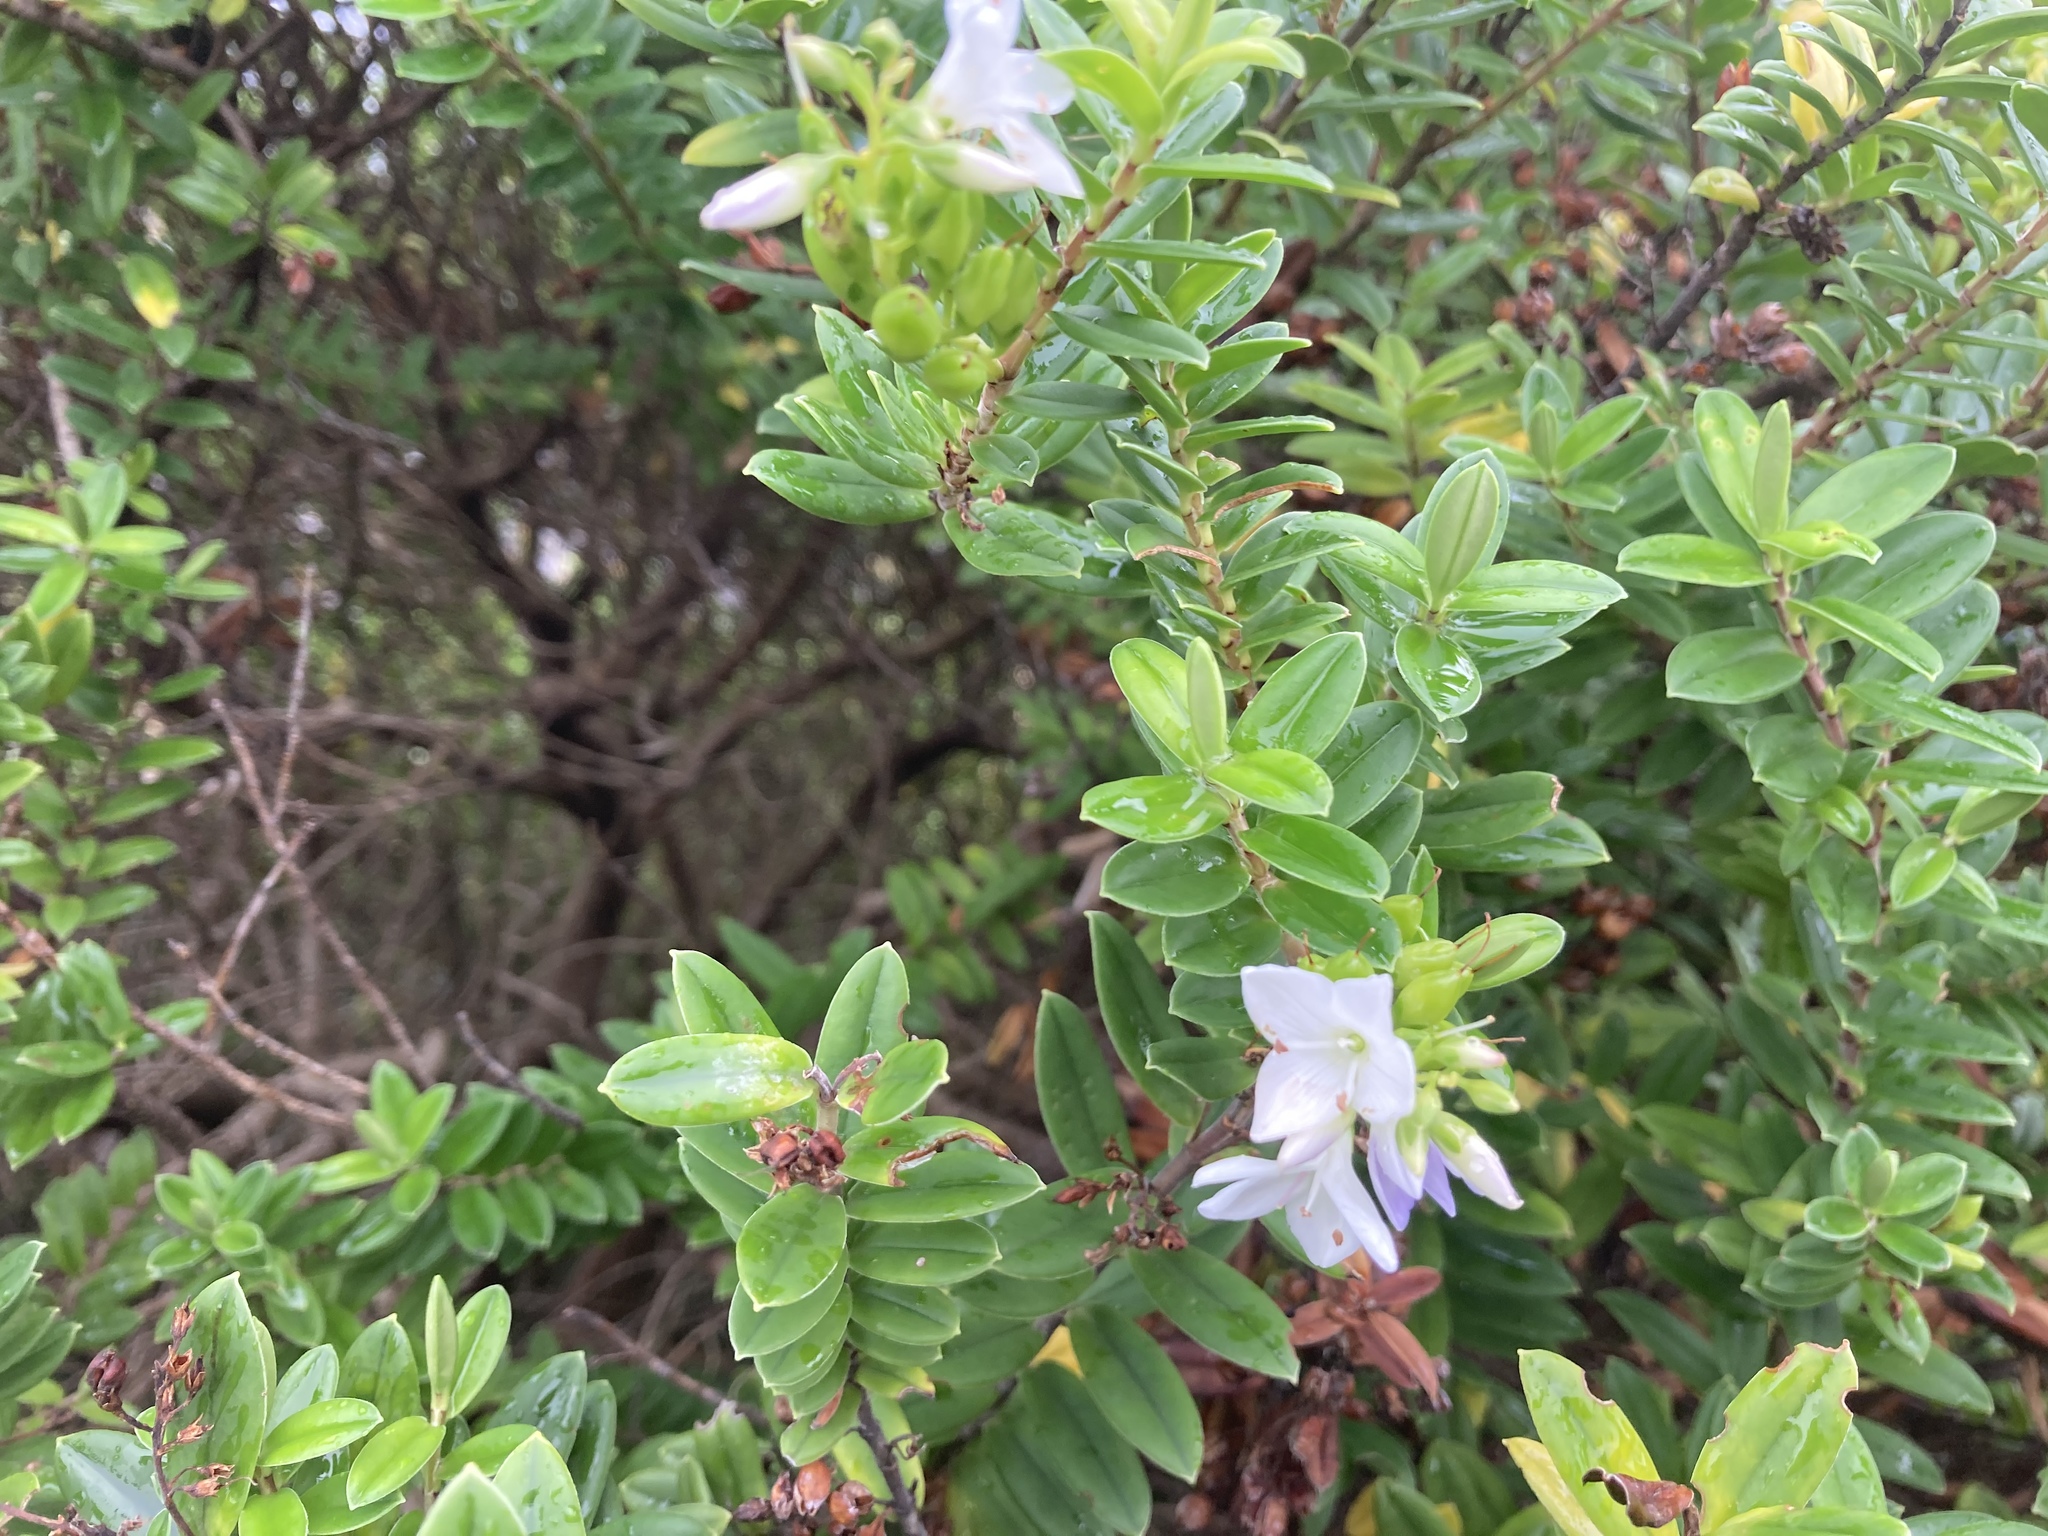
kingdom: Plantae
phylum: Tracheophyta
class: Magnoliopsida
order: Lamiales
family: Plantaginaceae
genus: Veronica
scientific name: Veronica elliptica
